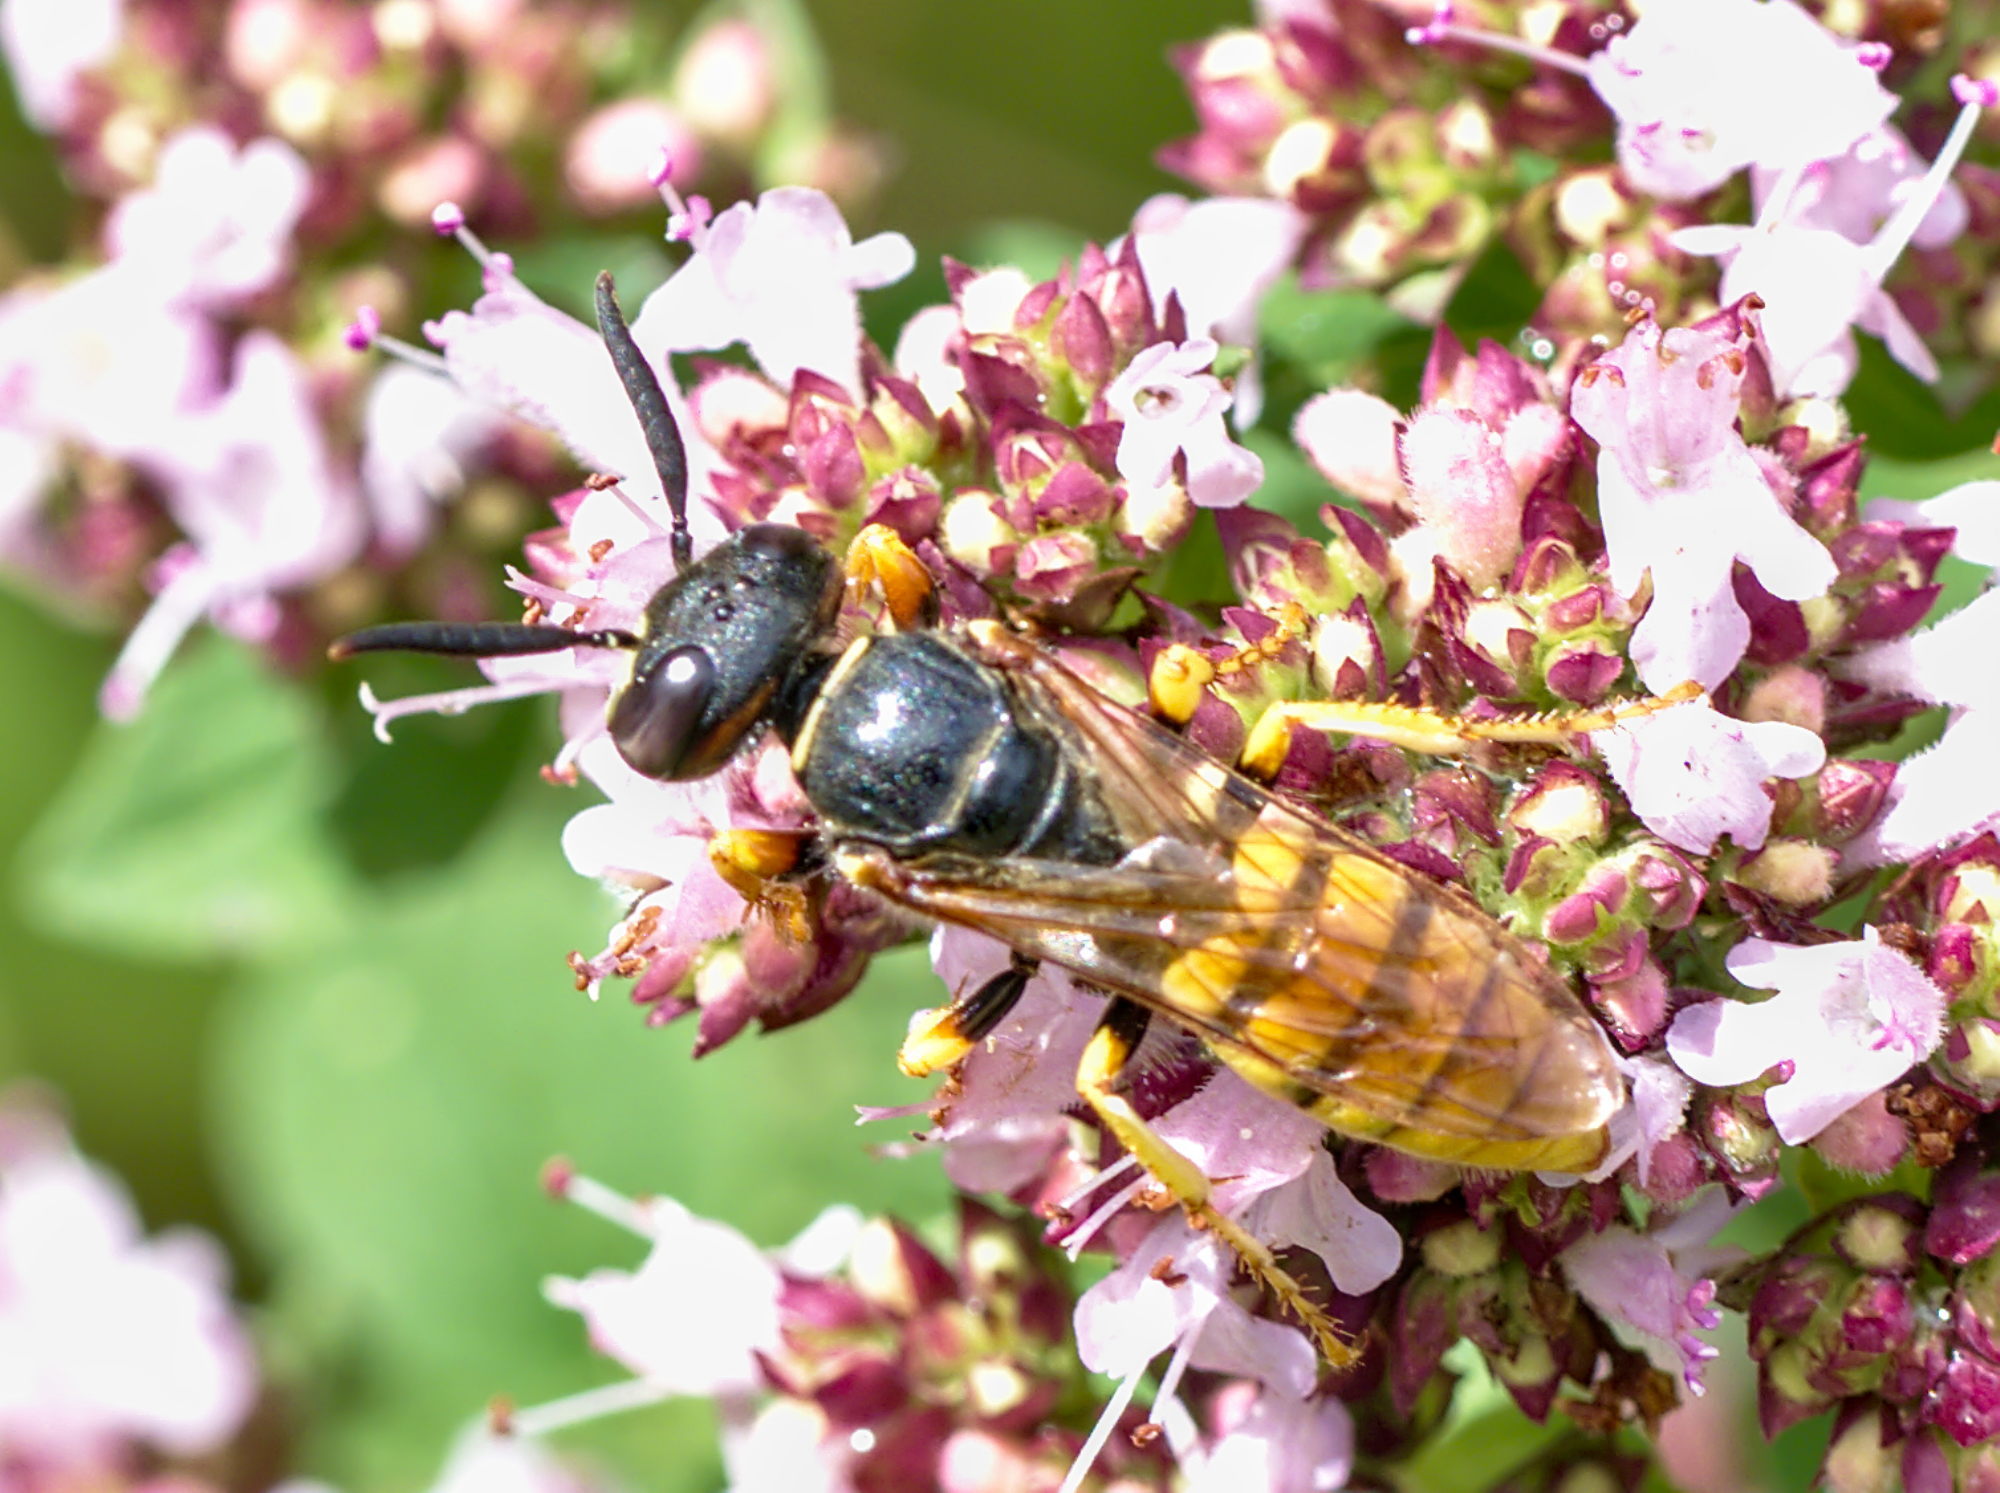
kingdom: Animalia
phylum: Arthropoda
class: Insecta
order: Hymenoptera
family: Crabronidae
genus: Philanthus
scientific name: Philanthus triangulum
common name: Bee wolf
